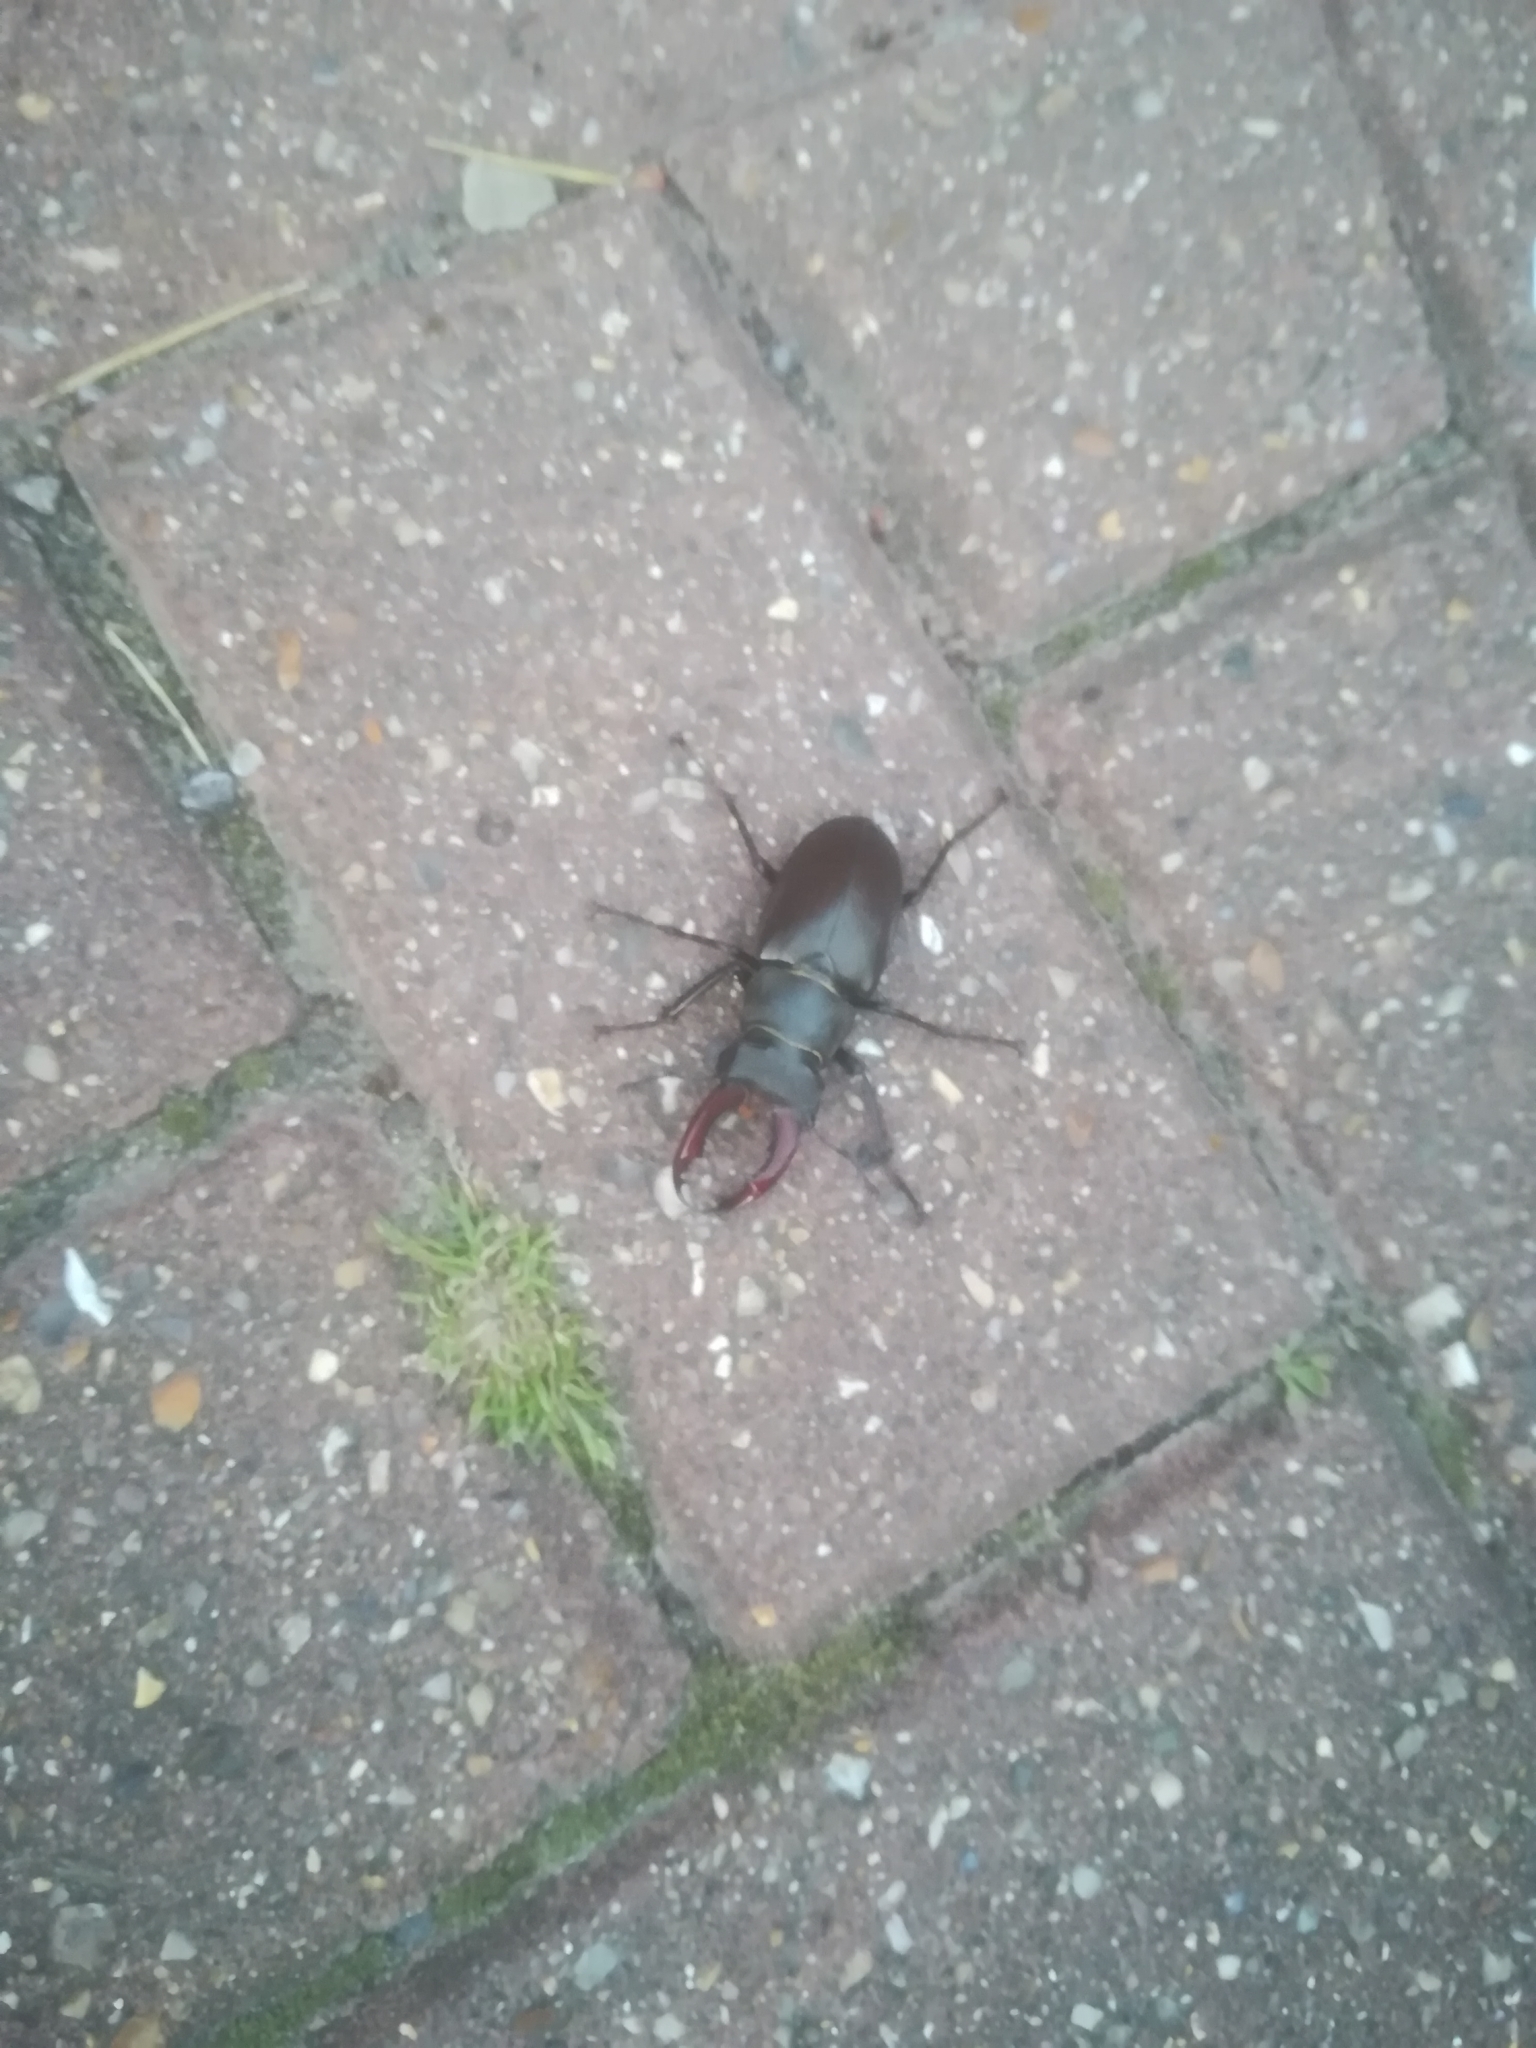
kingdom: Animalia
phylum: Arthropoda
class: Insecta
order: Coleoptera
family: Lucanidae
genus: Lucanus
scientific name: Lucanus cervus
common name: Stag beetle
